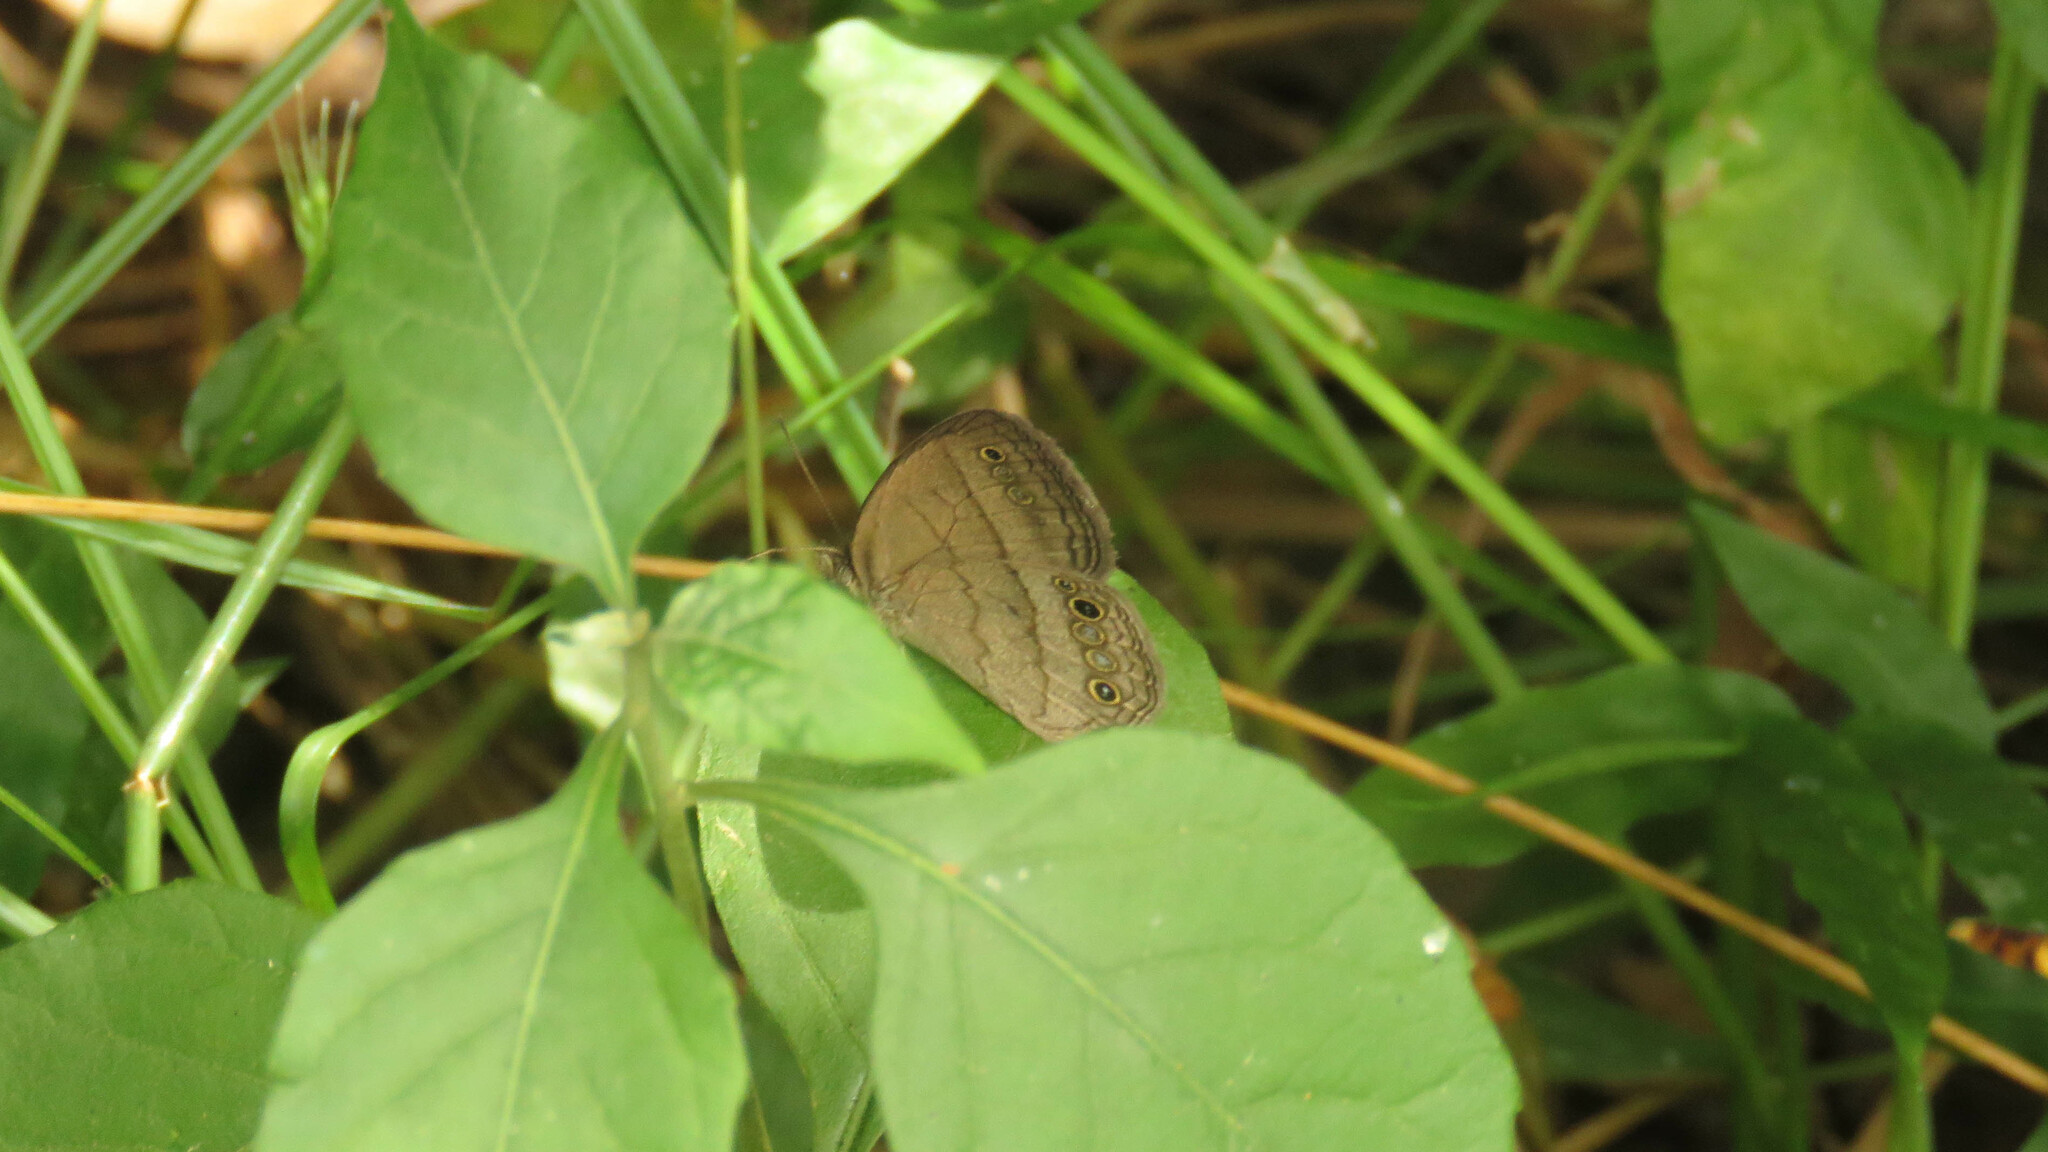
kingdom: Animalia
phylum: Arthropoda
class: Insecta
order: Lepidoptera
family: Nymphalidae
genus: Malaveria
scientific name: Malaveria
